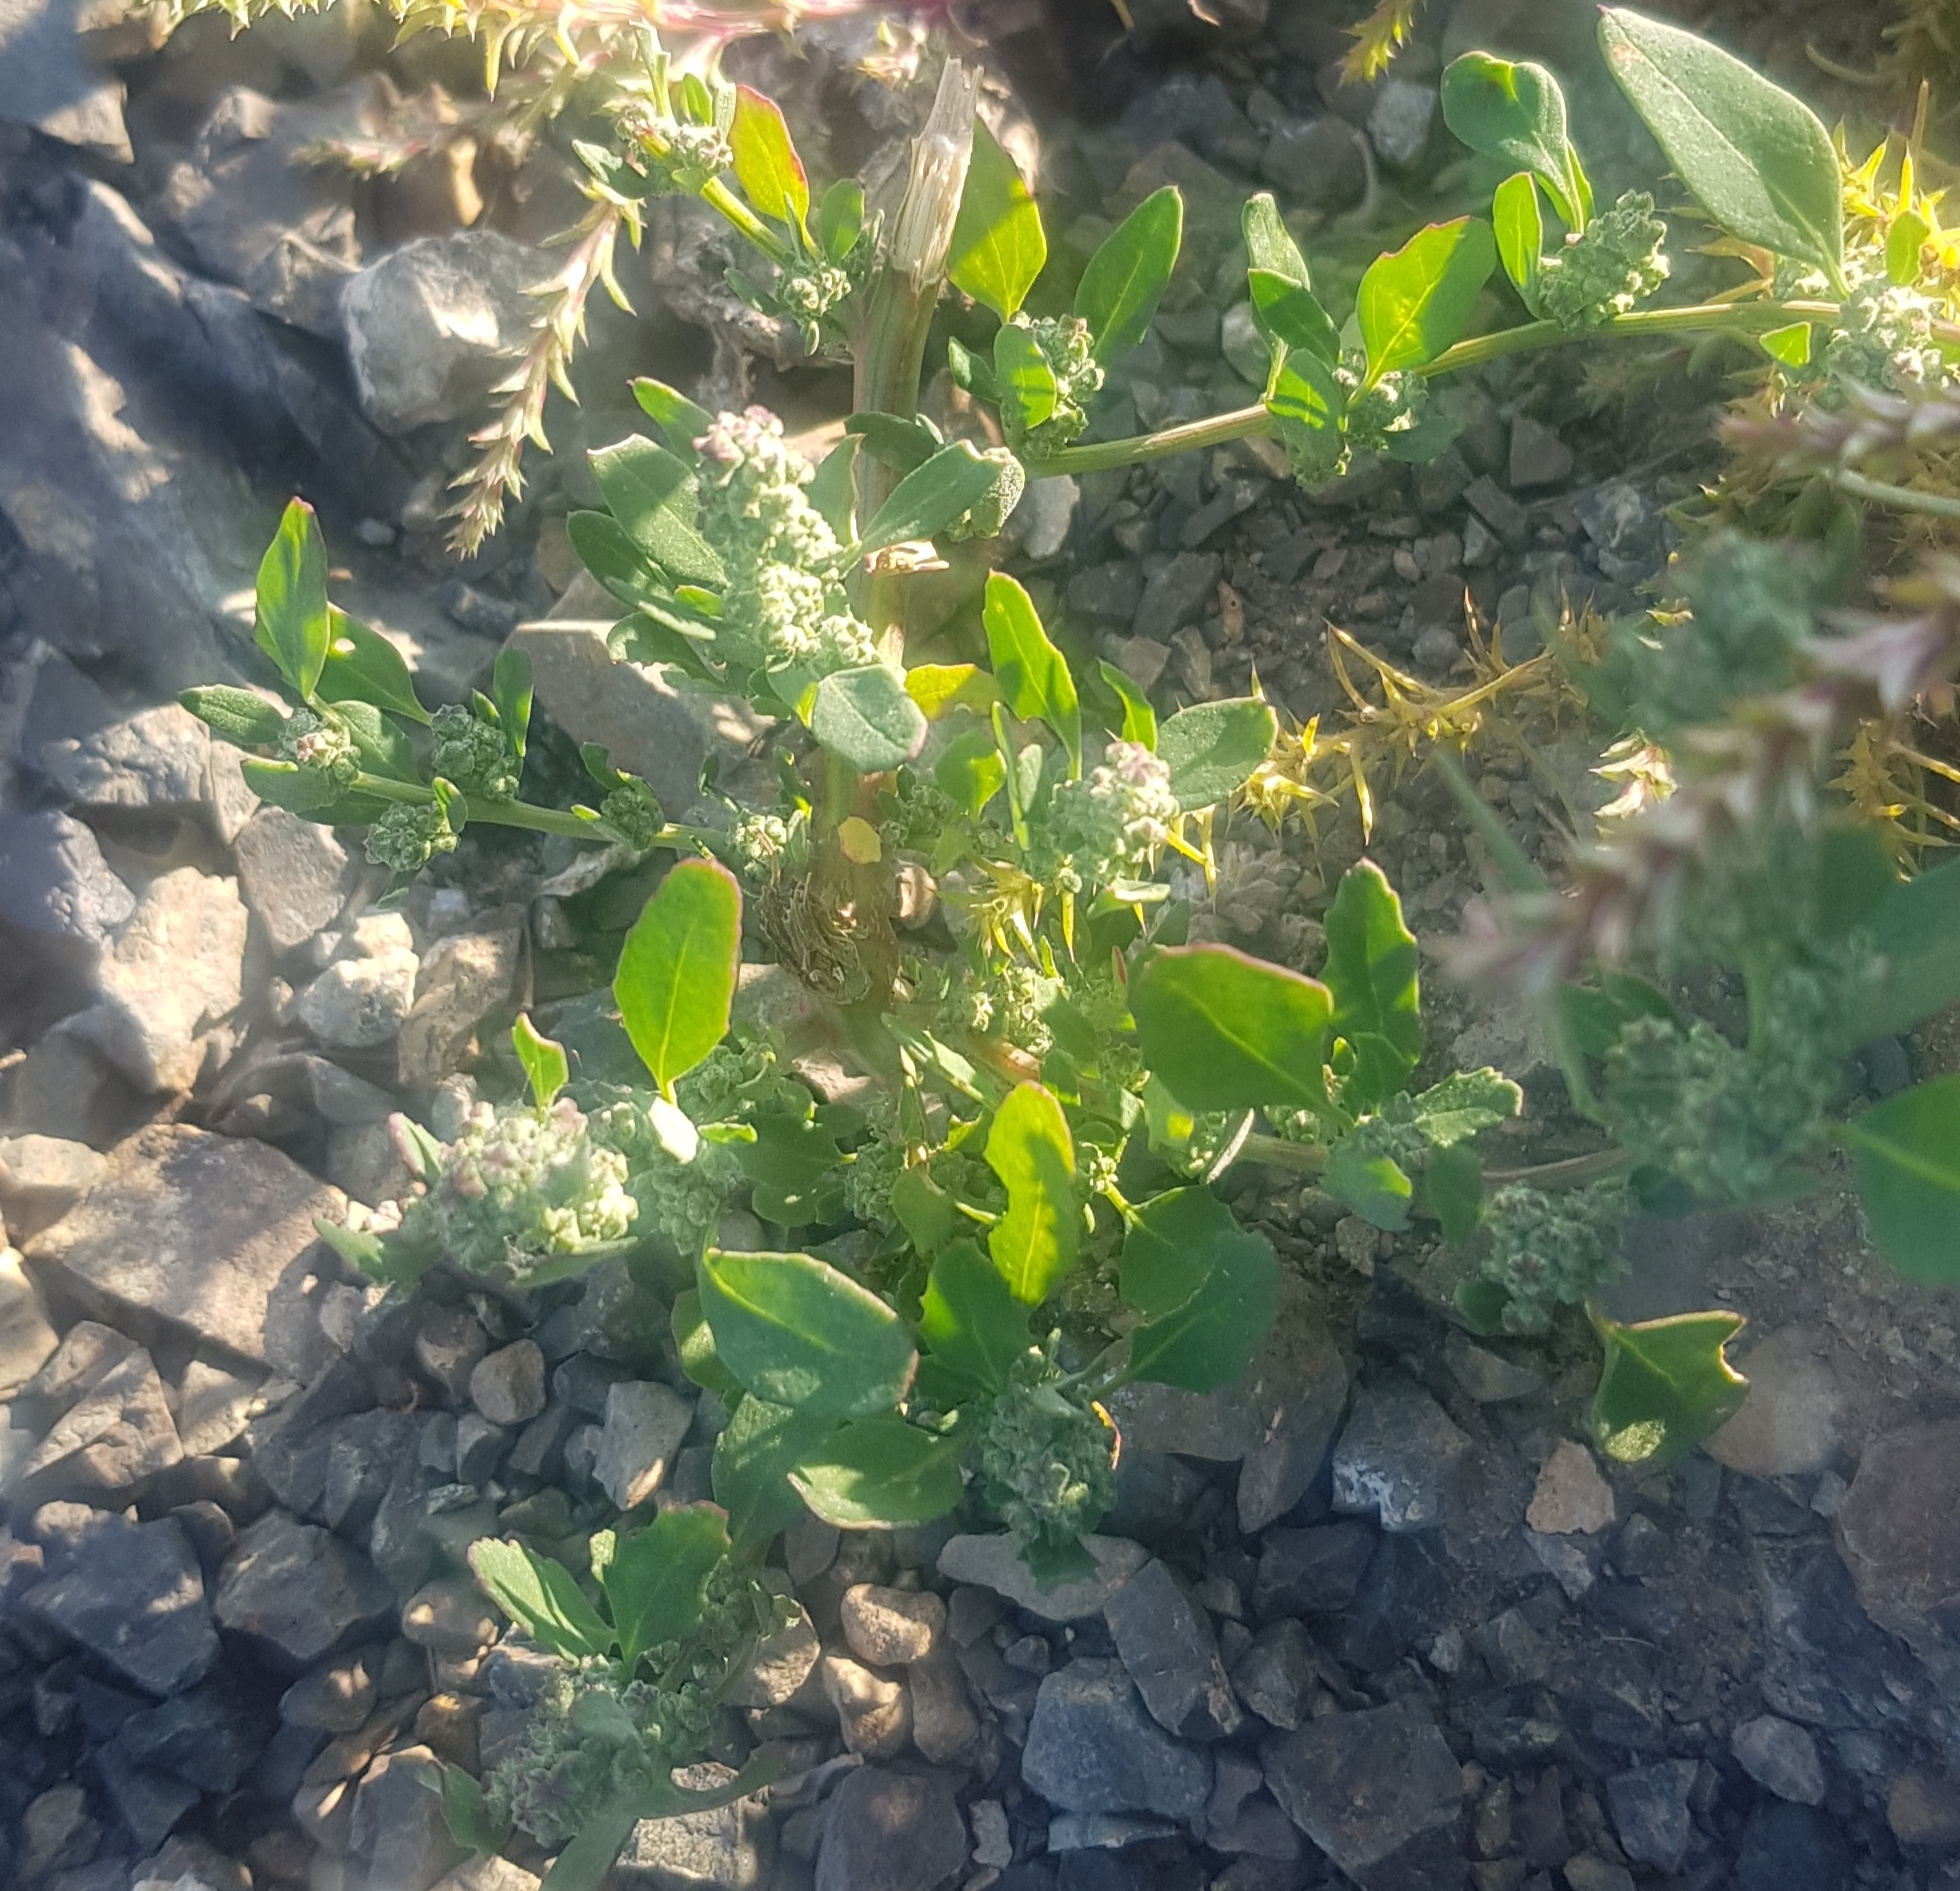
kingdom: Plantae
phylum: Tracheophyta
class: Magnoliopsida
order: Caryophyllales
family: Amaranthaceae
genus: Chenopodium
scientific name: Chenopodium album
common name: Fat-hen
